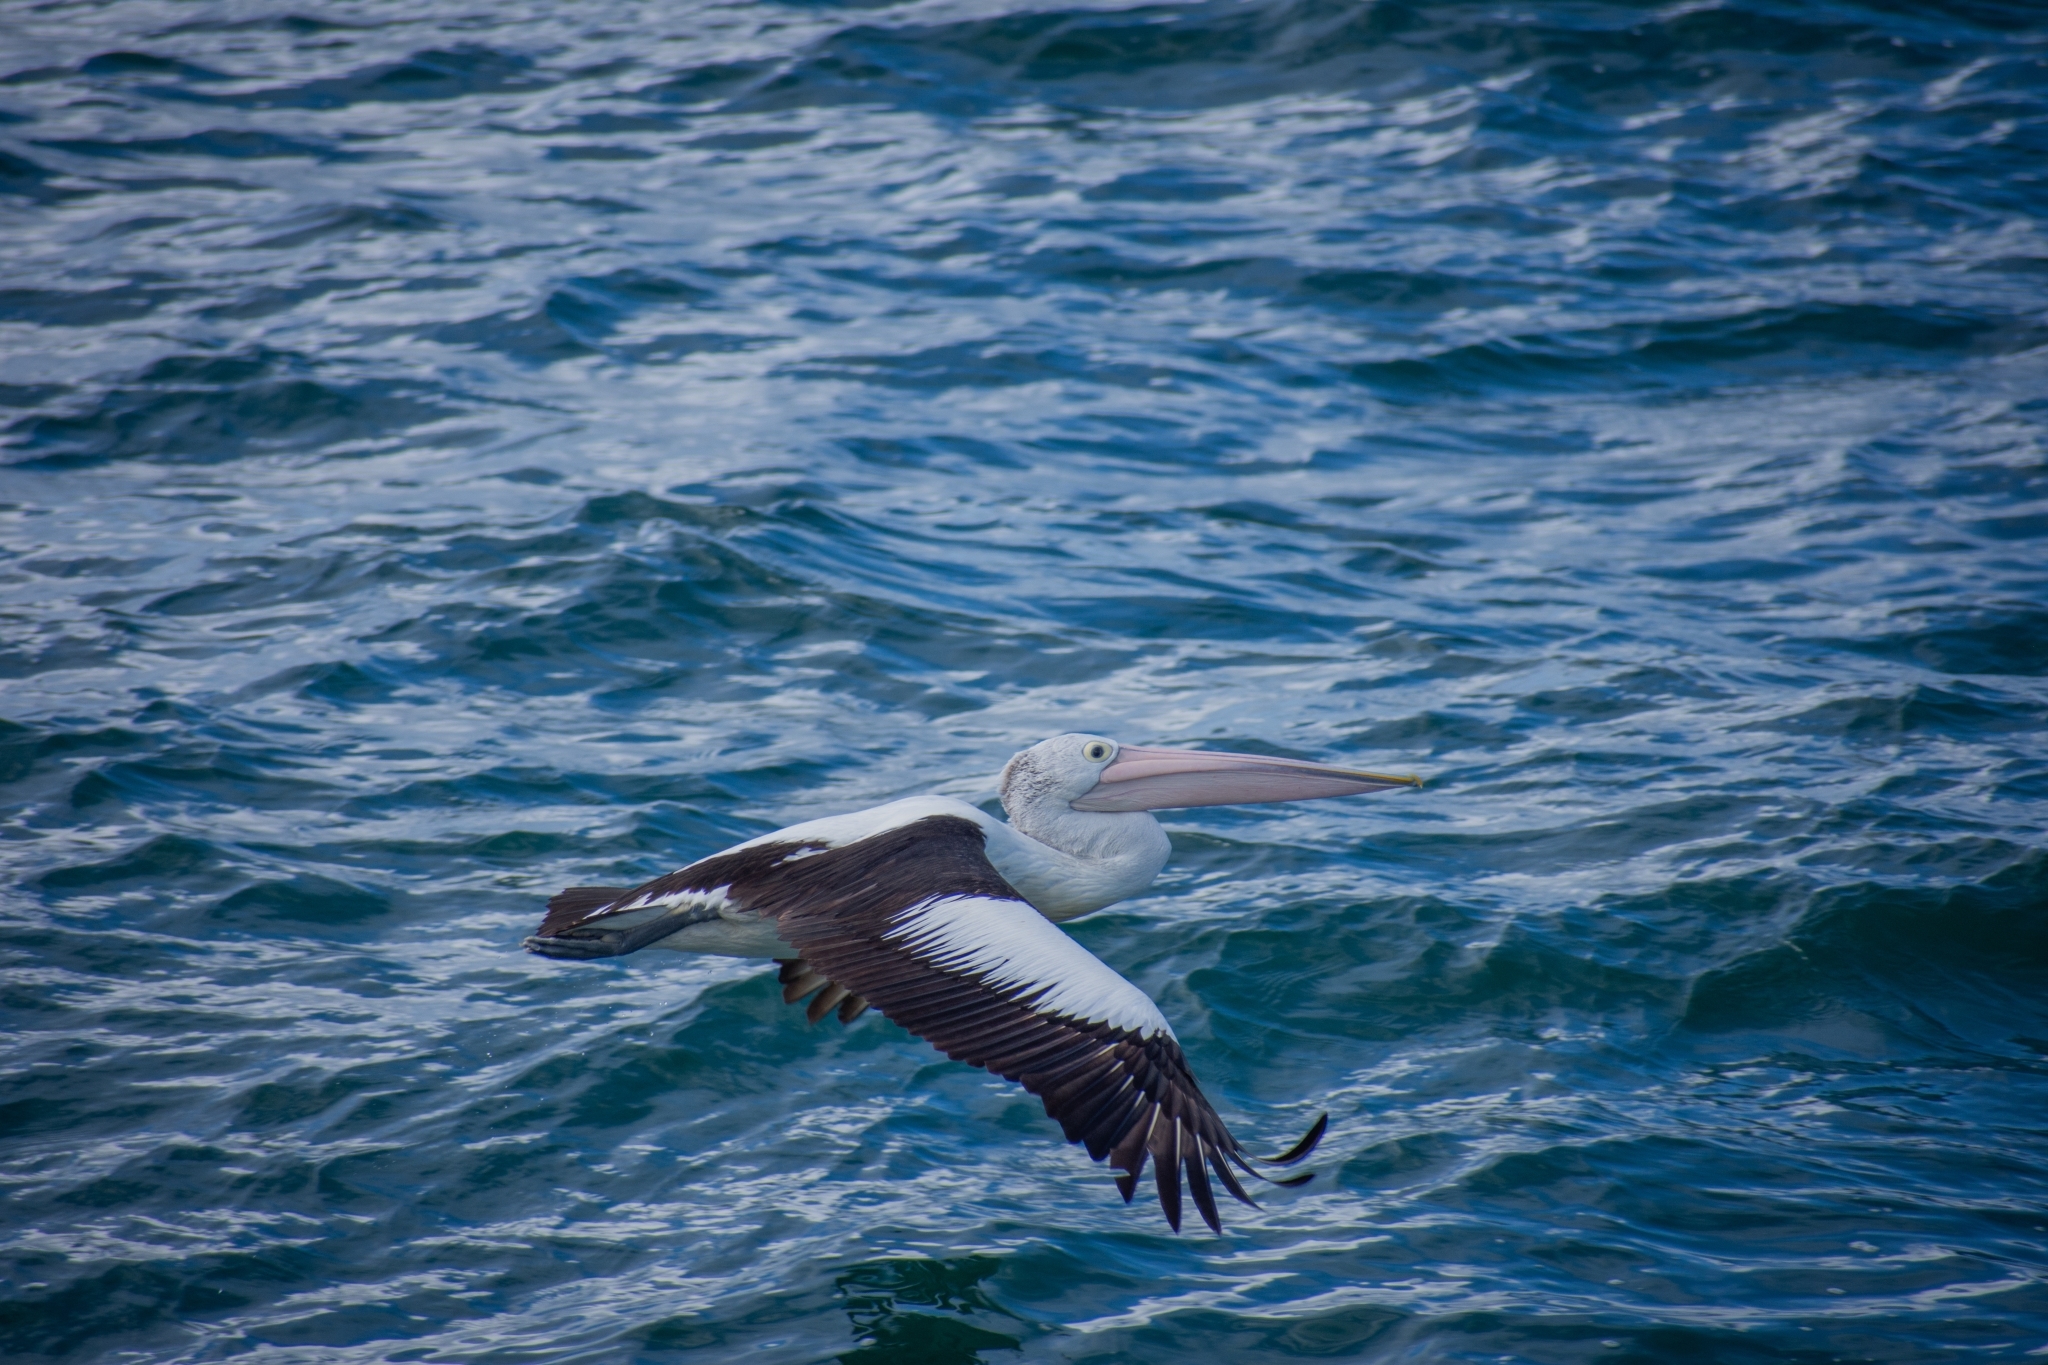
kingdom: Animalia
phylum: Chordata
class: Aves
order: Pelecaniformes
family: Pelecanidae
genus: Pelecanus
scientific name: Pelecanus conspicillatus
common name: Australian pelican
